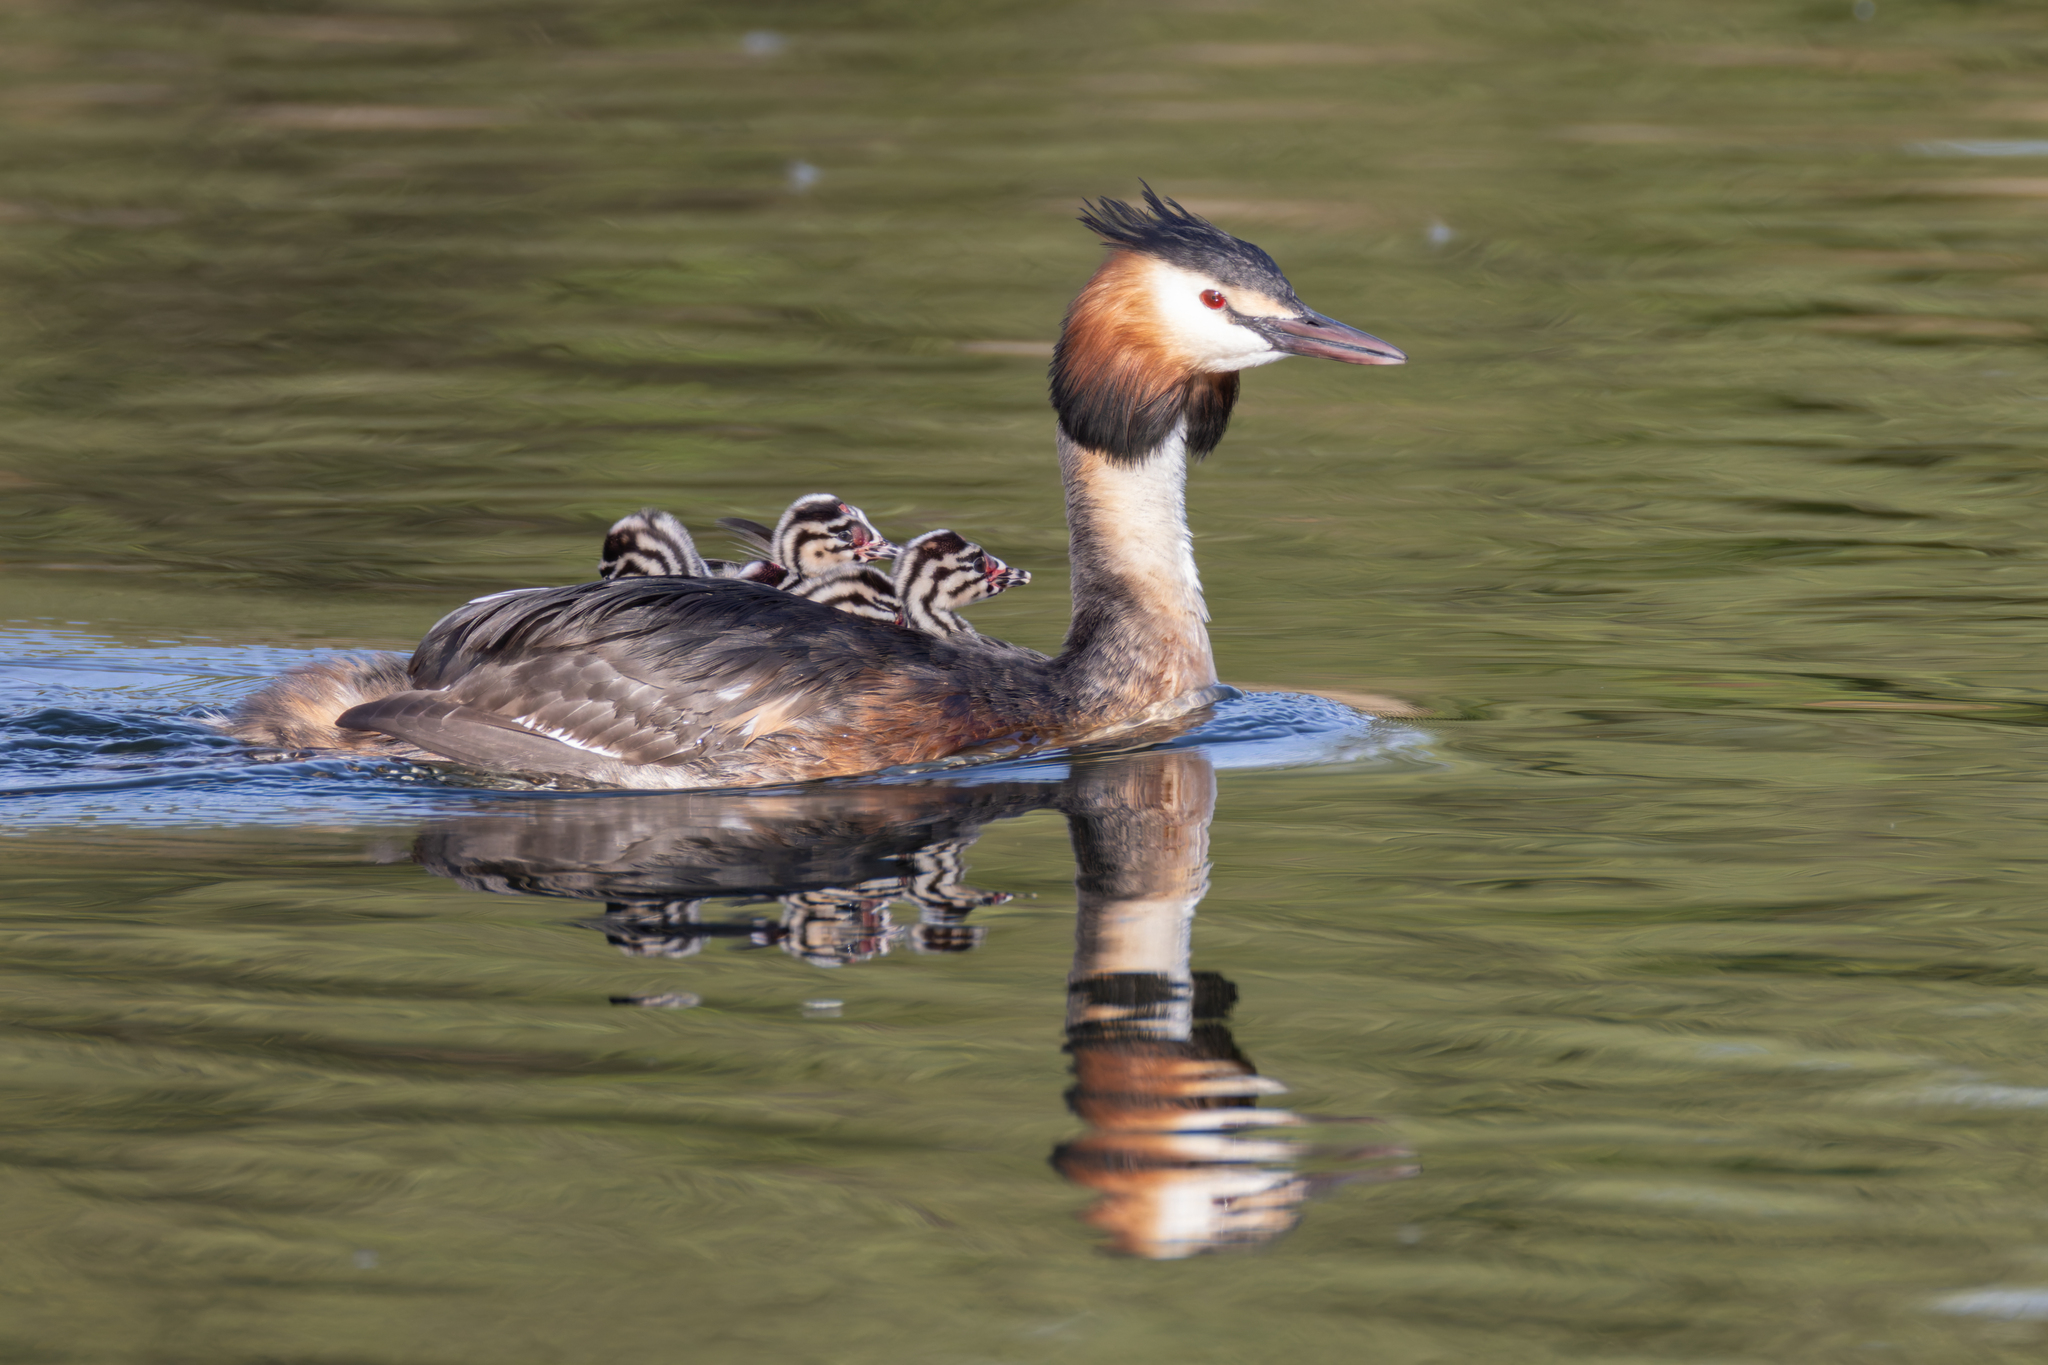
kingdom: Animalia
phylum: Chordata
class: Aves
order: Podicipediformes
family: Podicipedidae
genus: Podiceps
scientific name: Podiceps cristatus
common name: Great crested grebe
